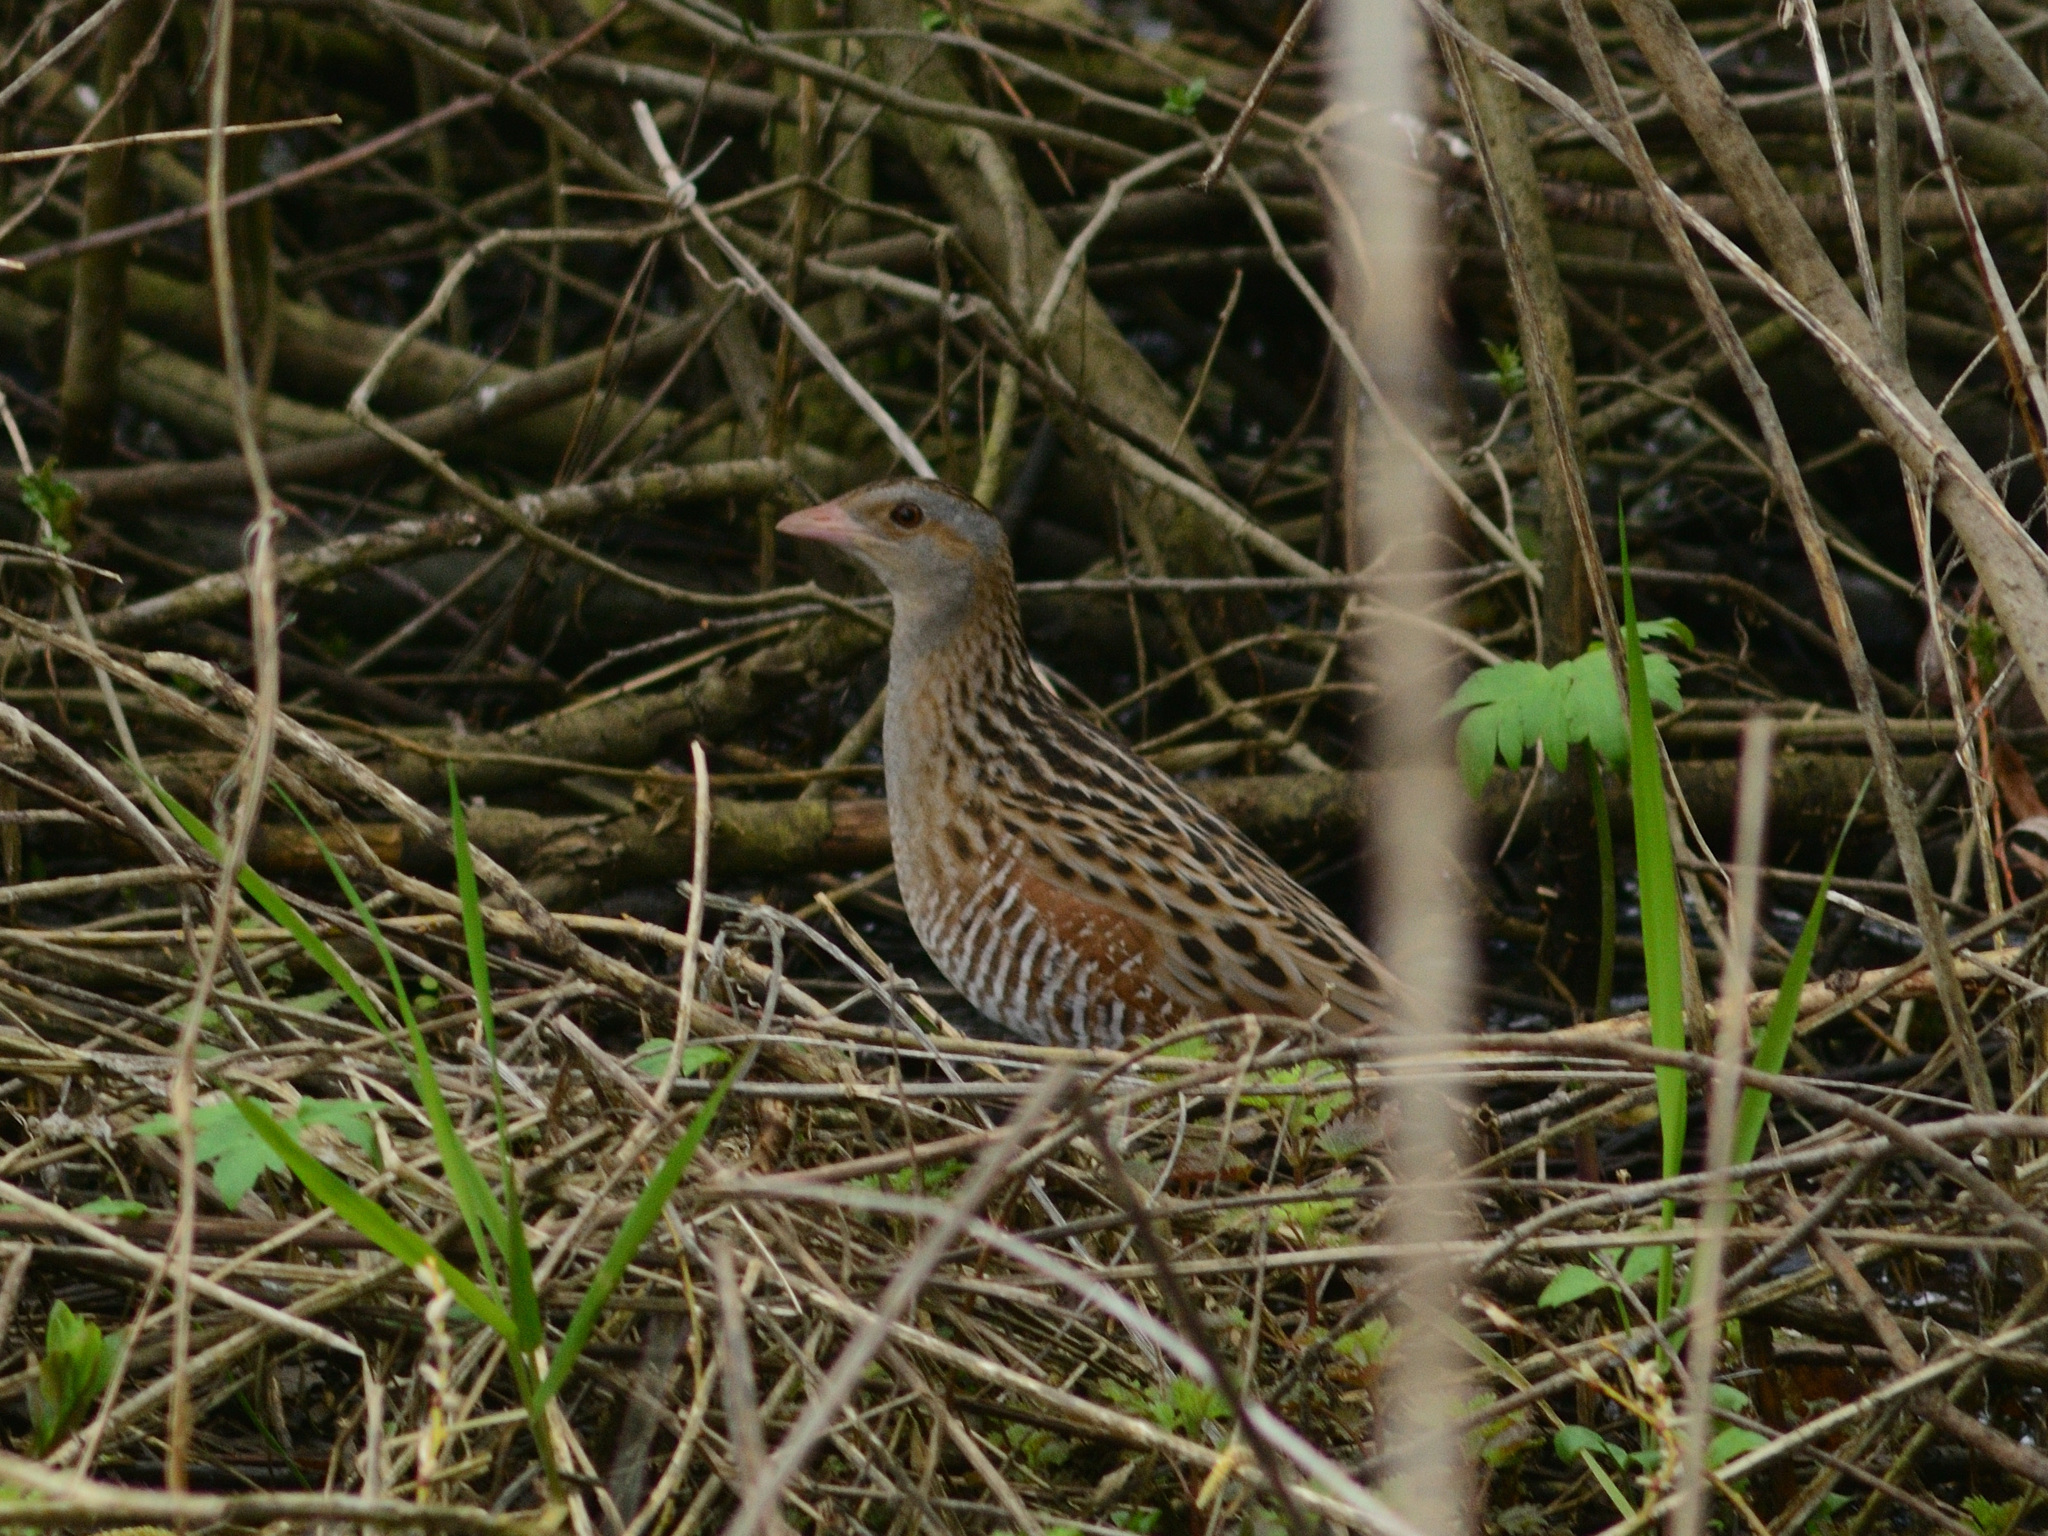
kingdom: Animalia
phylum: Chordata
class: Aves
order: Gruiformes
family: Rallidae
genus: Crex
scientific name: Crex crex
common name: Corn crake
